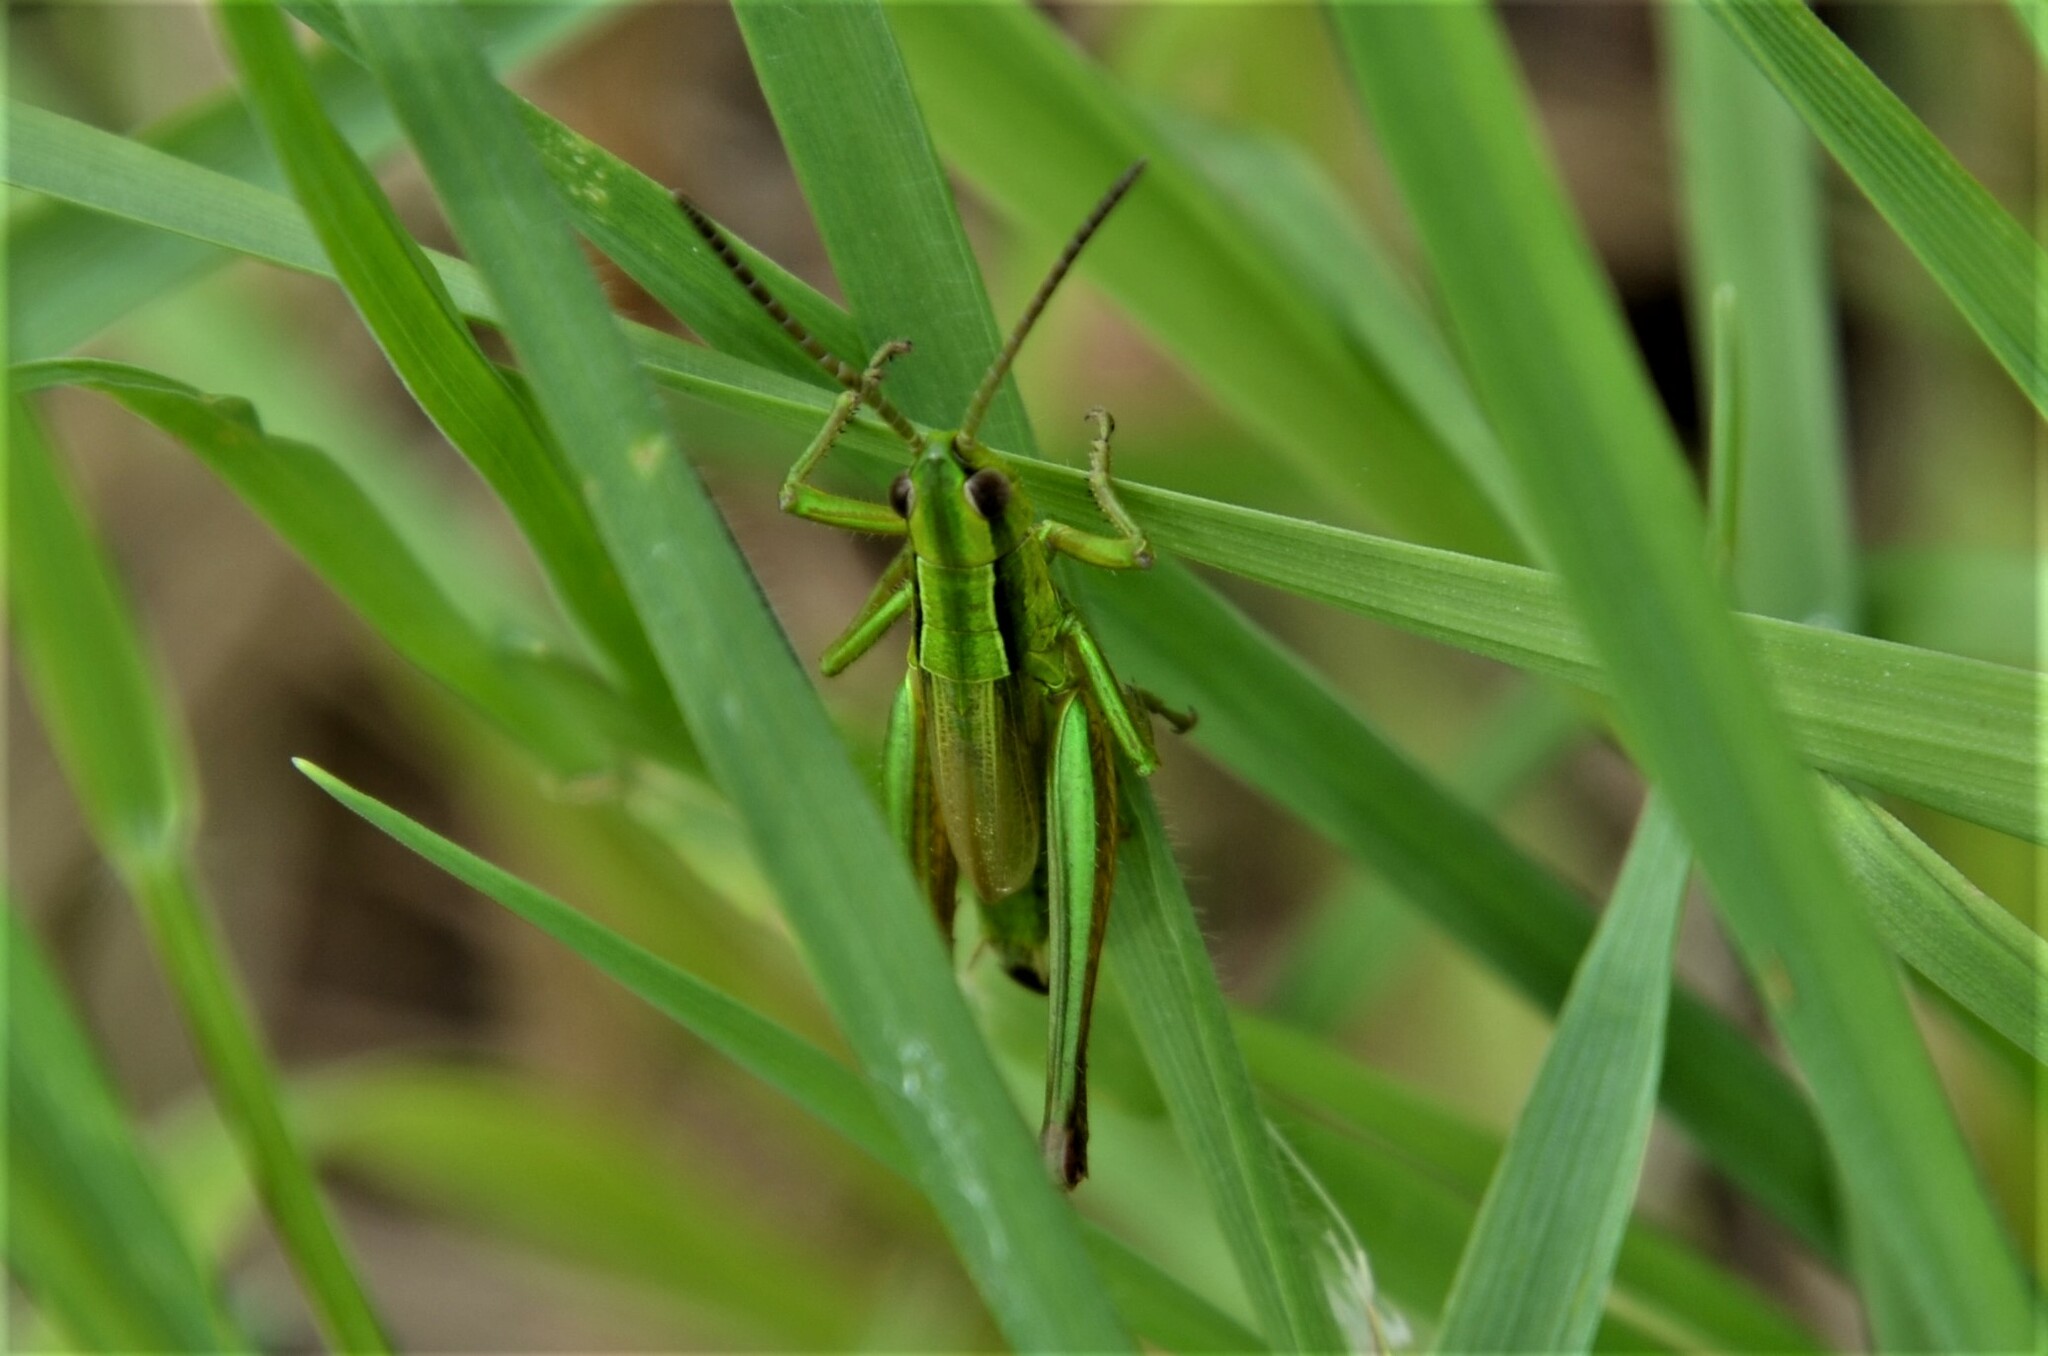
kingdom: Animalia
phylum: Arthropoda
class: Insecta
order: Orthoptera
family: Acrididae
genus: Euthystira
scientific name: Euthystira brachyptera
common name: Small gold grasshopper
